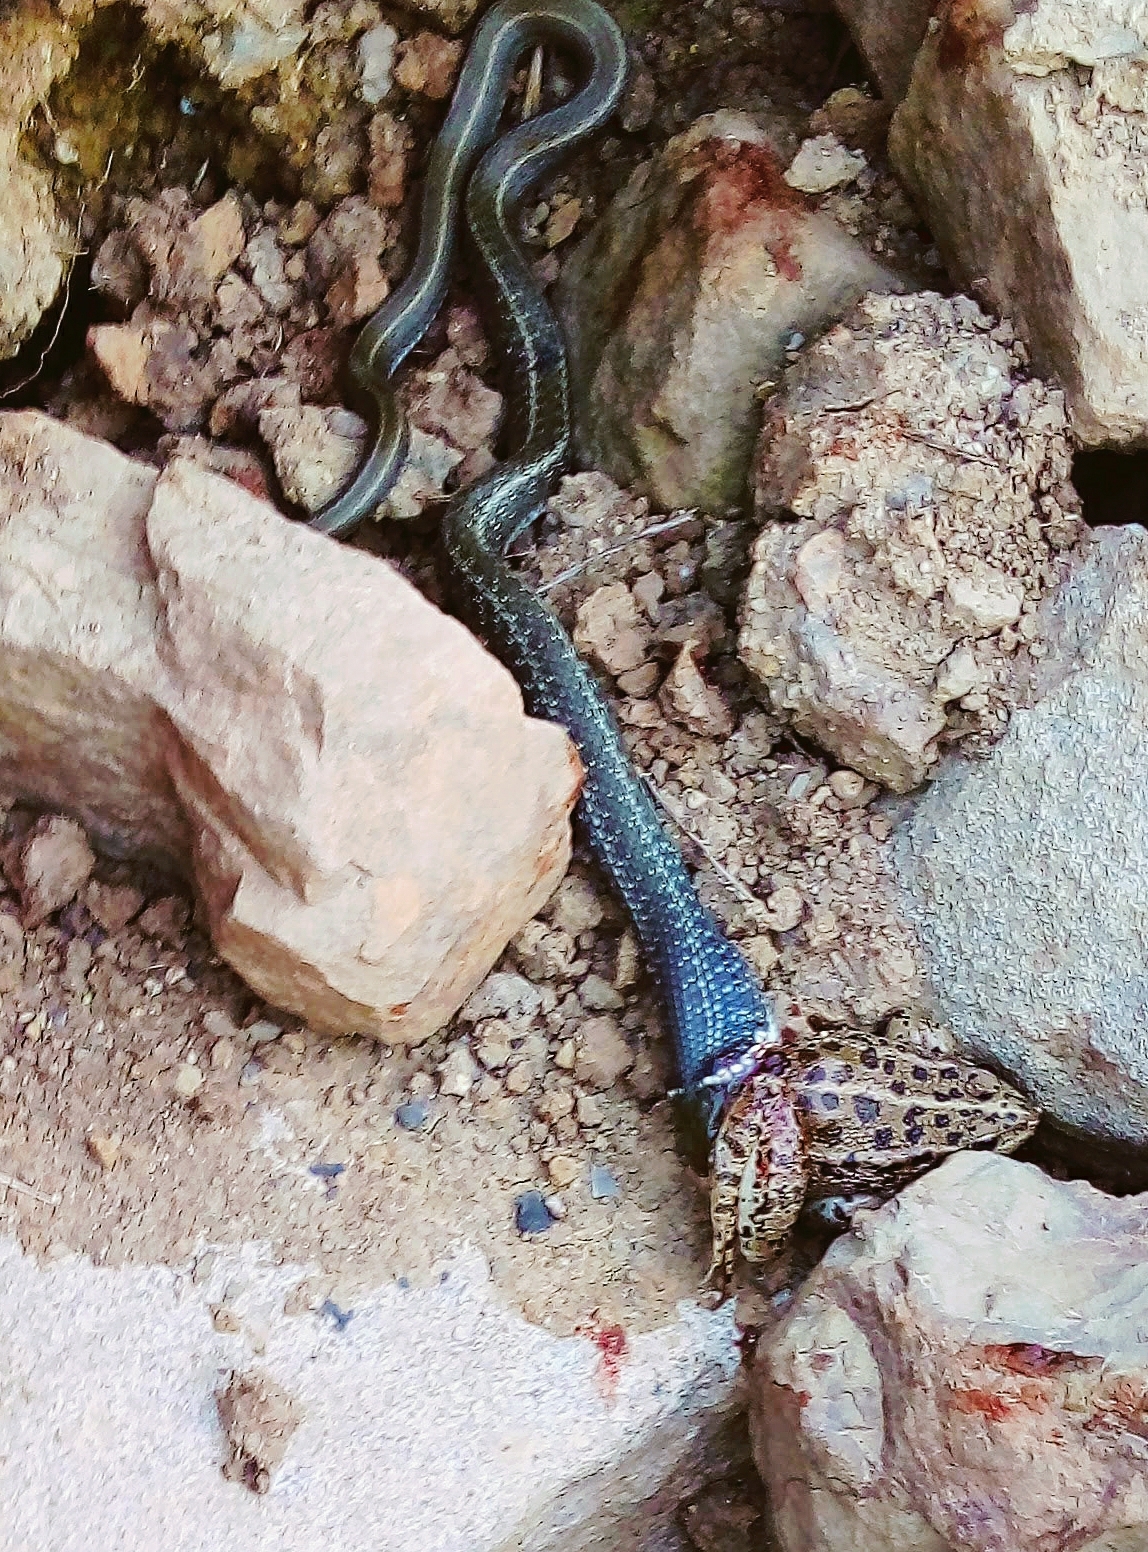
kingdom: Animalia
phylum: Chordata
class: Amphibia
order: Anura
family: Ranidae
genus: Pelophylax
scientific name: Pelophylax ridibundus
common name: Marsh frog
